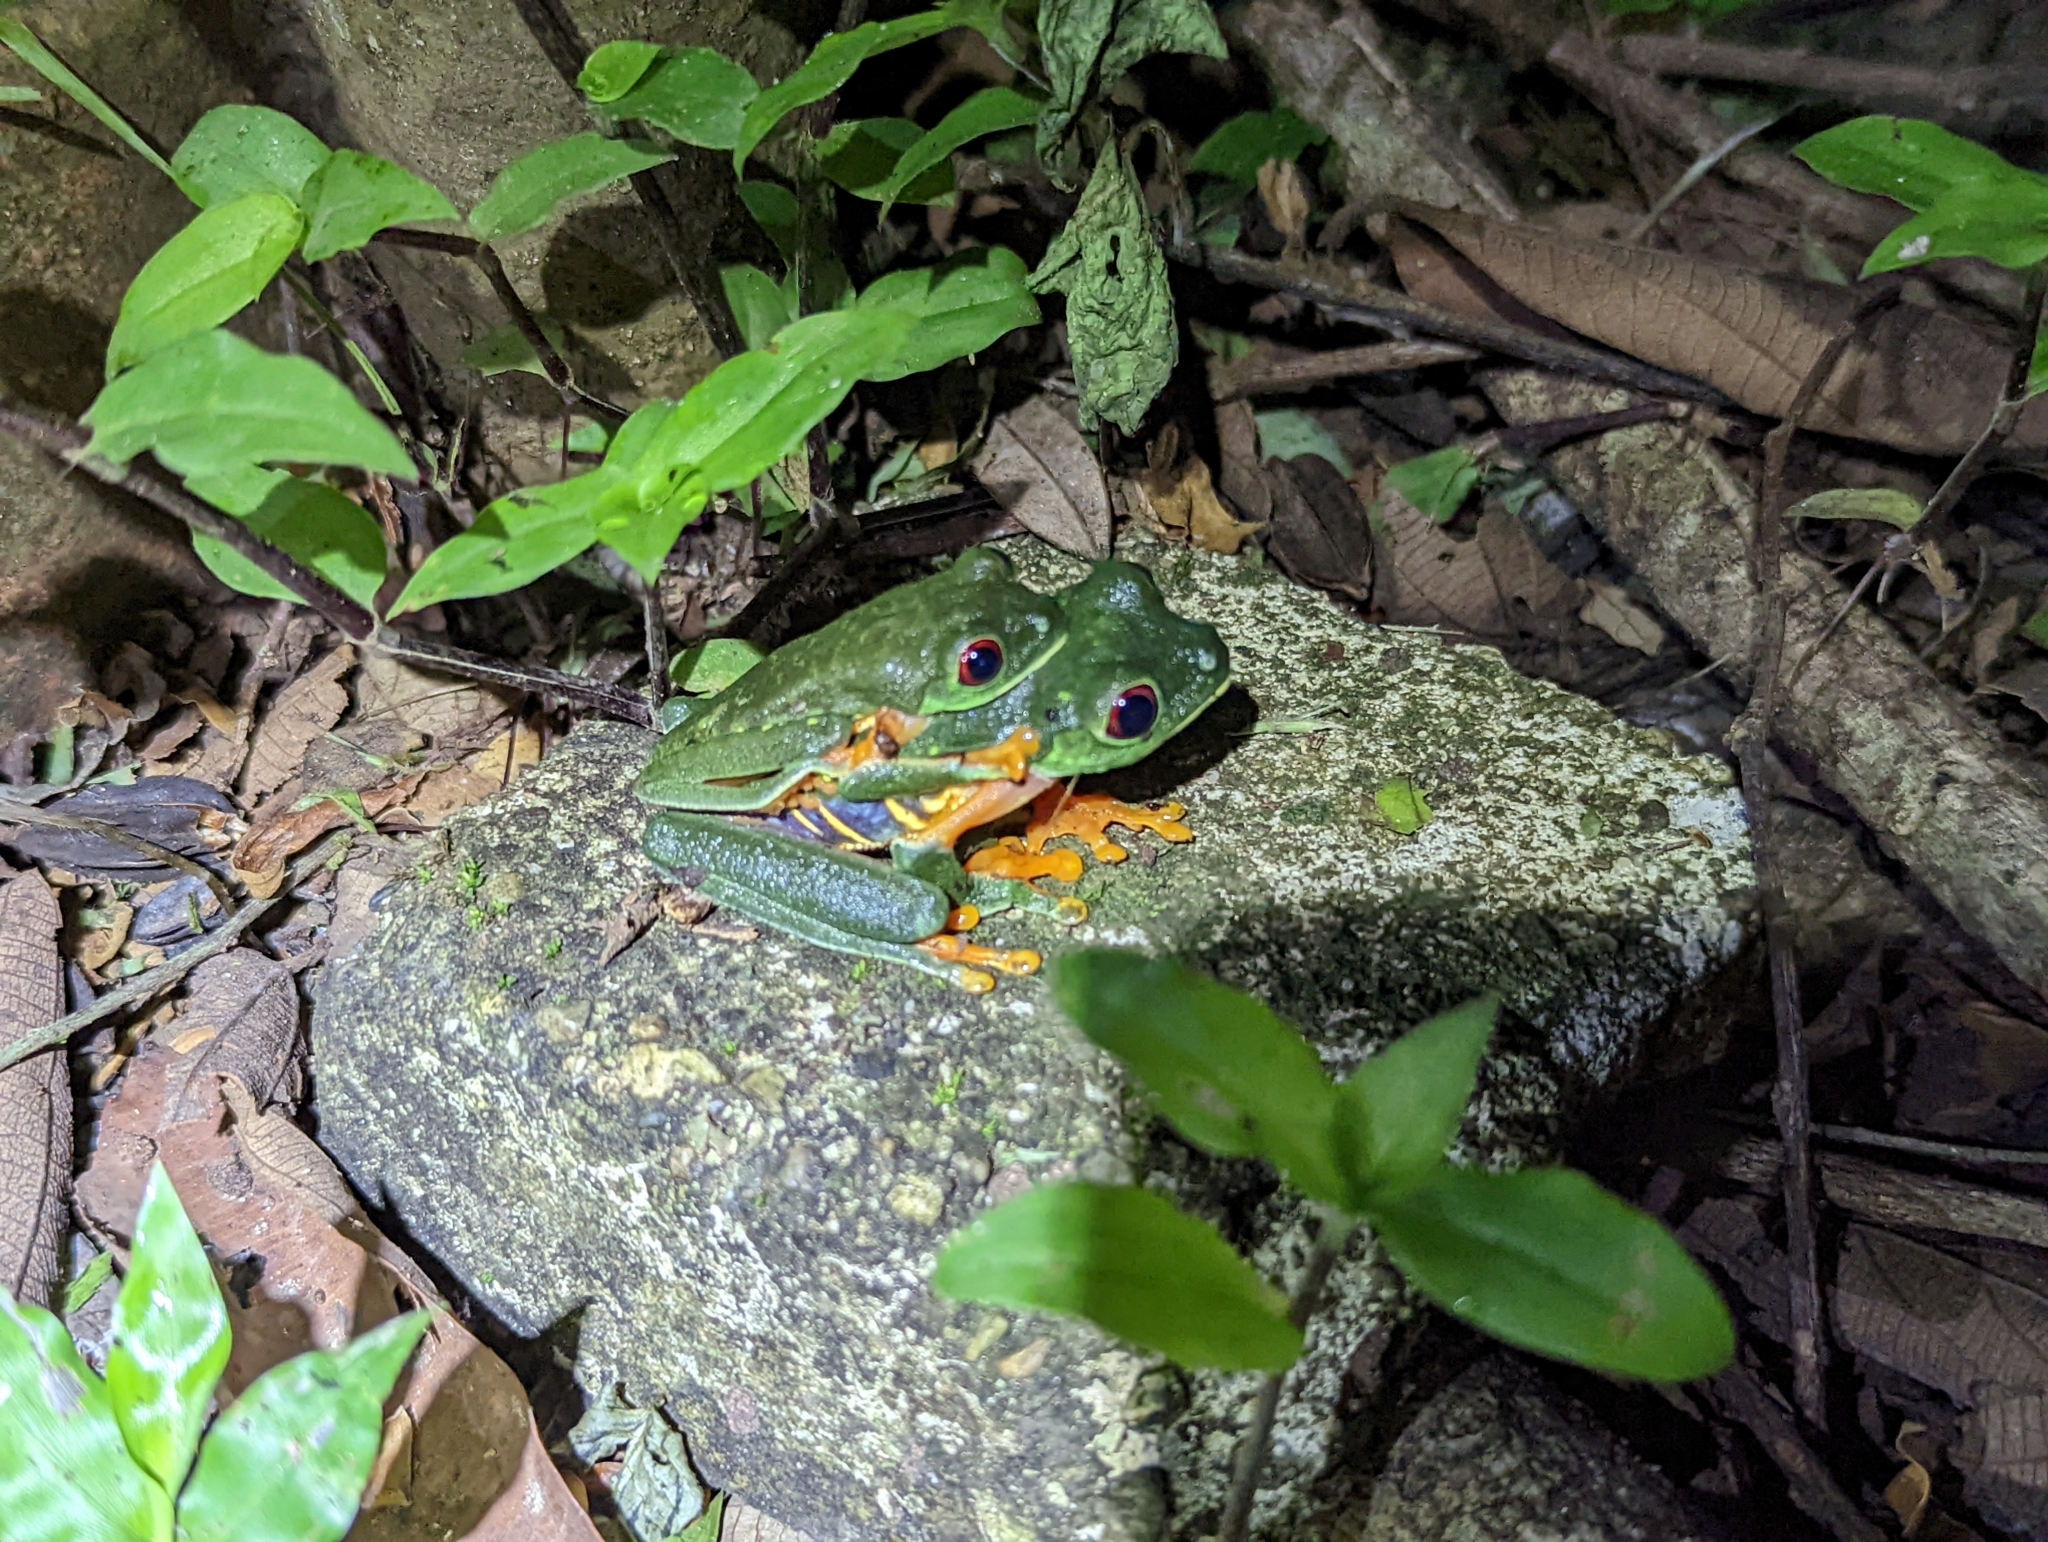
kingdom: Animalia
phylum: Chordata
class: Amphibia
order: Anura
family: Phyllomedusidae
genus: Agalychnis
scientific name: Agalychnis callidryas
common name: Red-eyed treefrog
